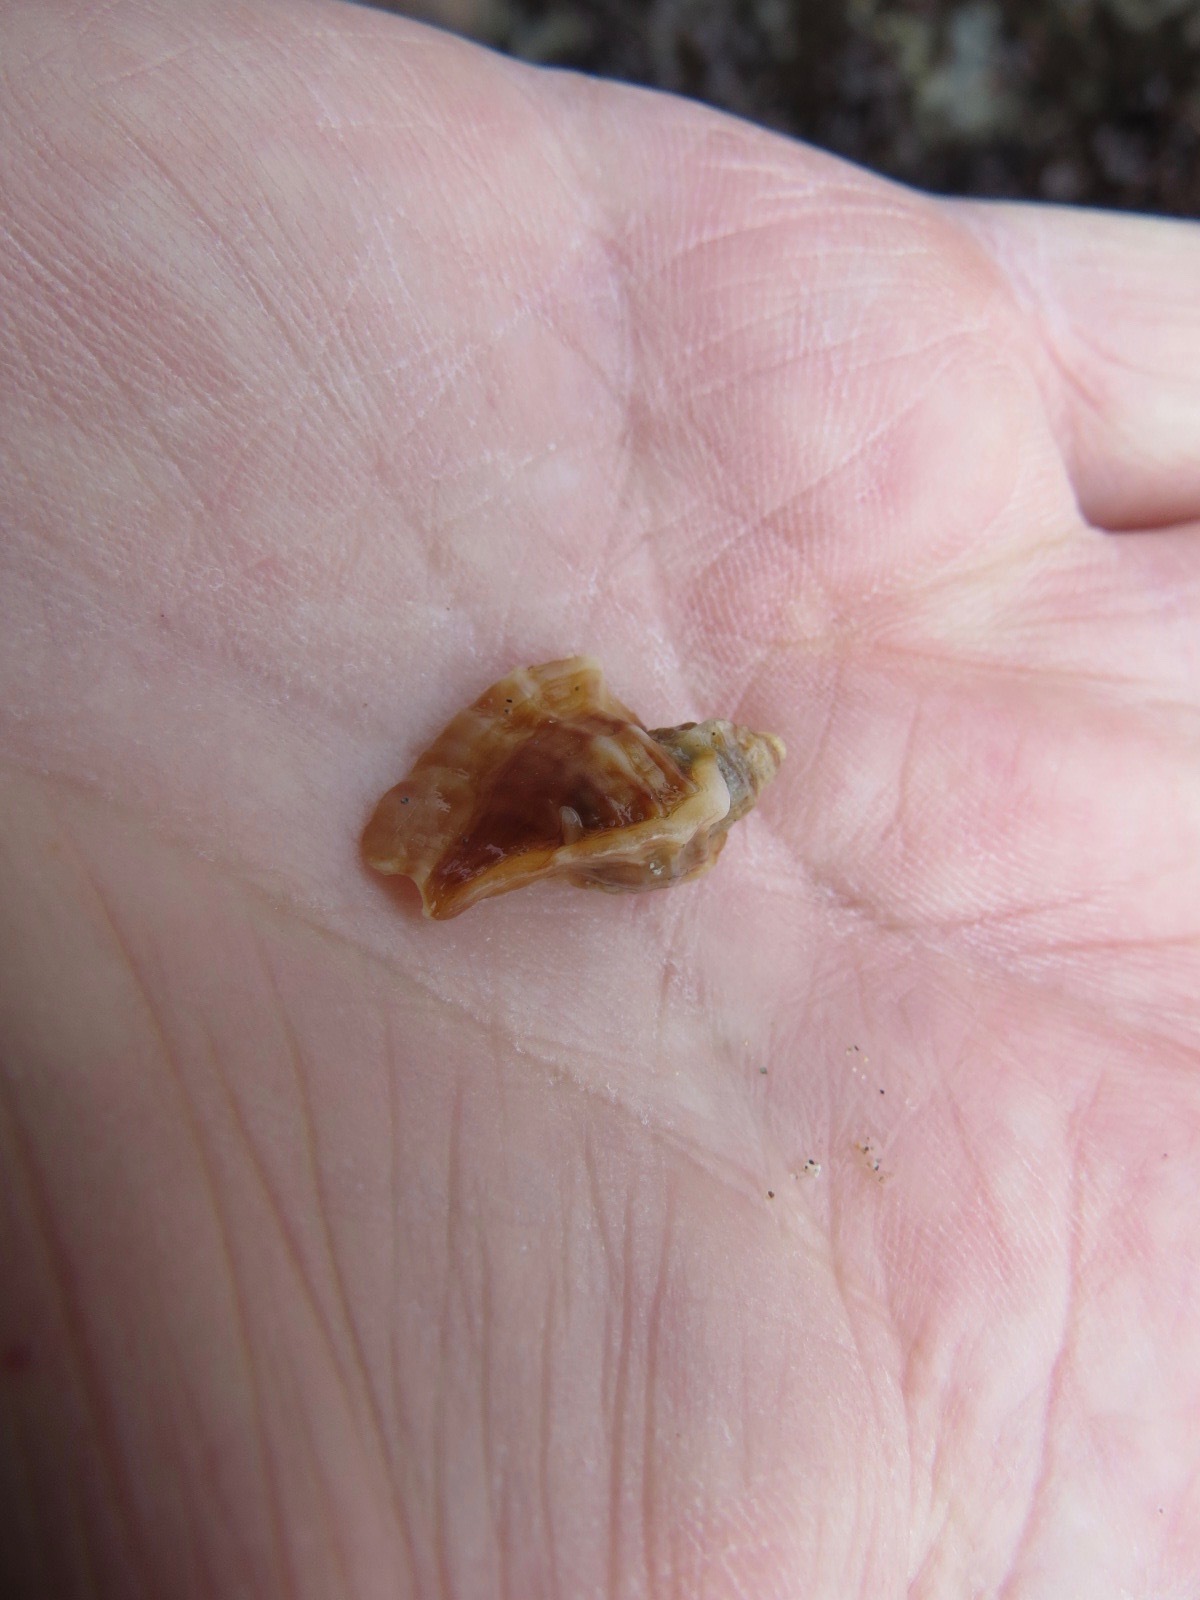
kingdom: Animalia
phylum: Mollusca
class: Gastropoda
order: Neogastropoda
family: Muricidae
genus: Ceratostoma
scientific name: Ceratostoma foliatum
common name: Foliate thorn purpura
